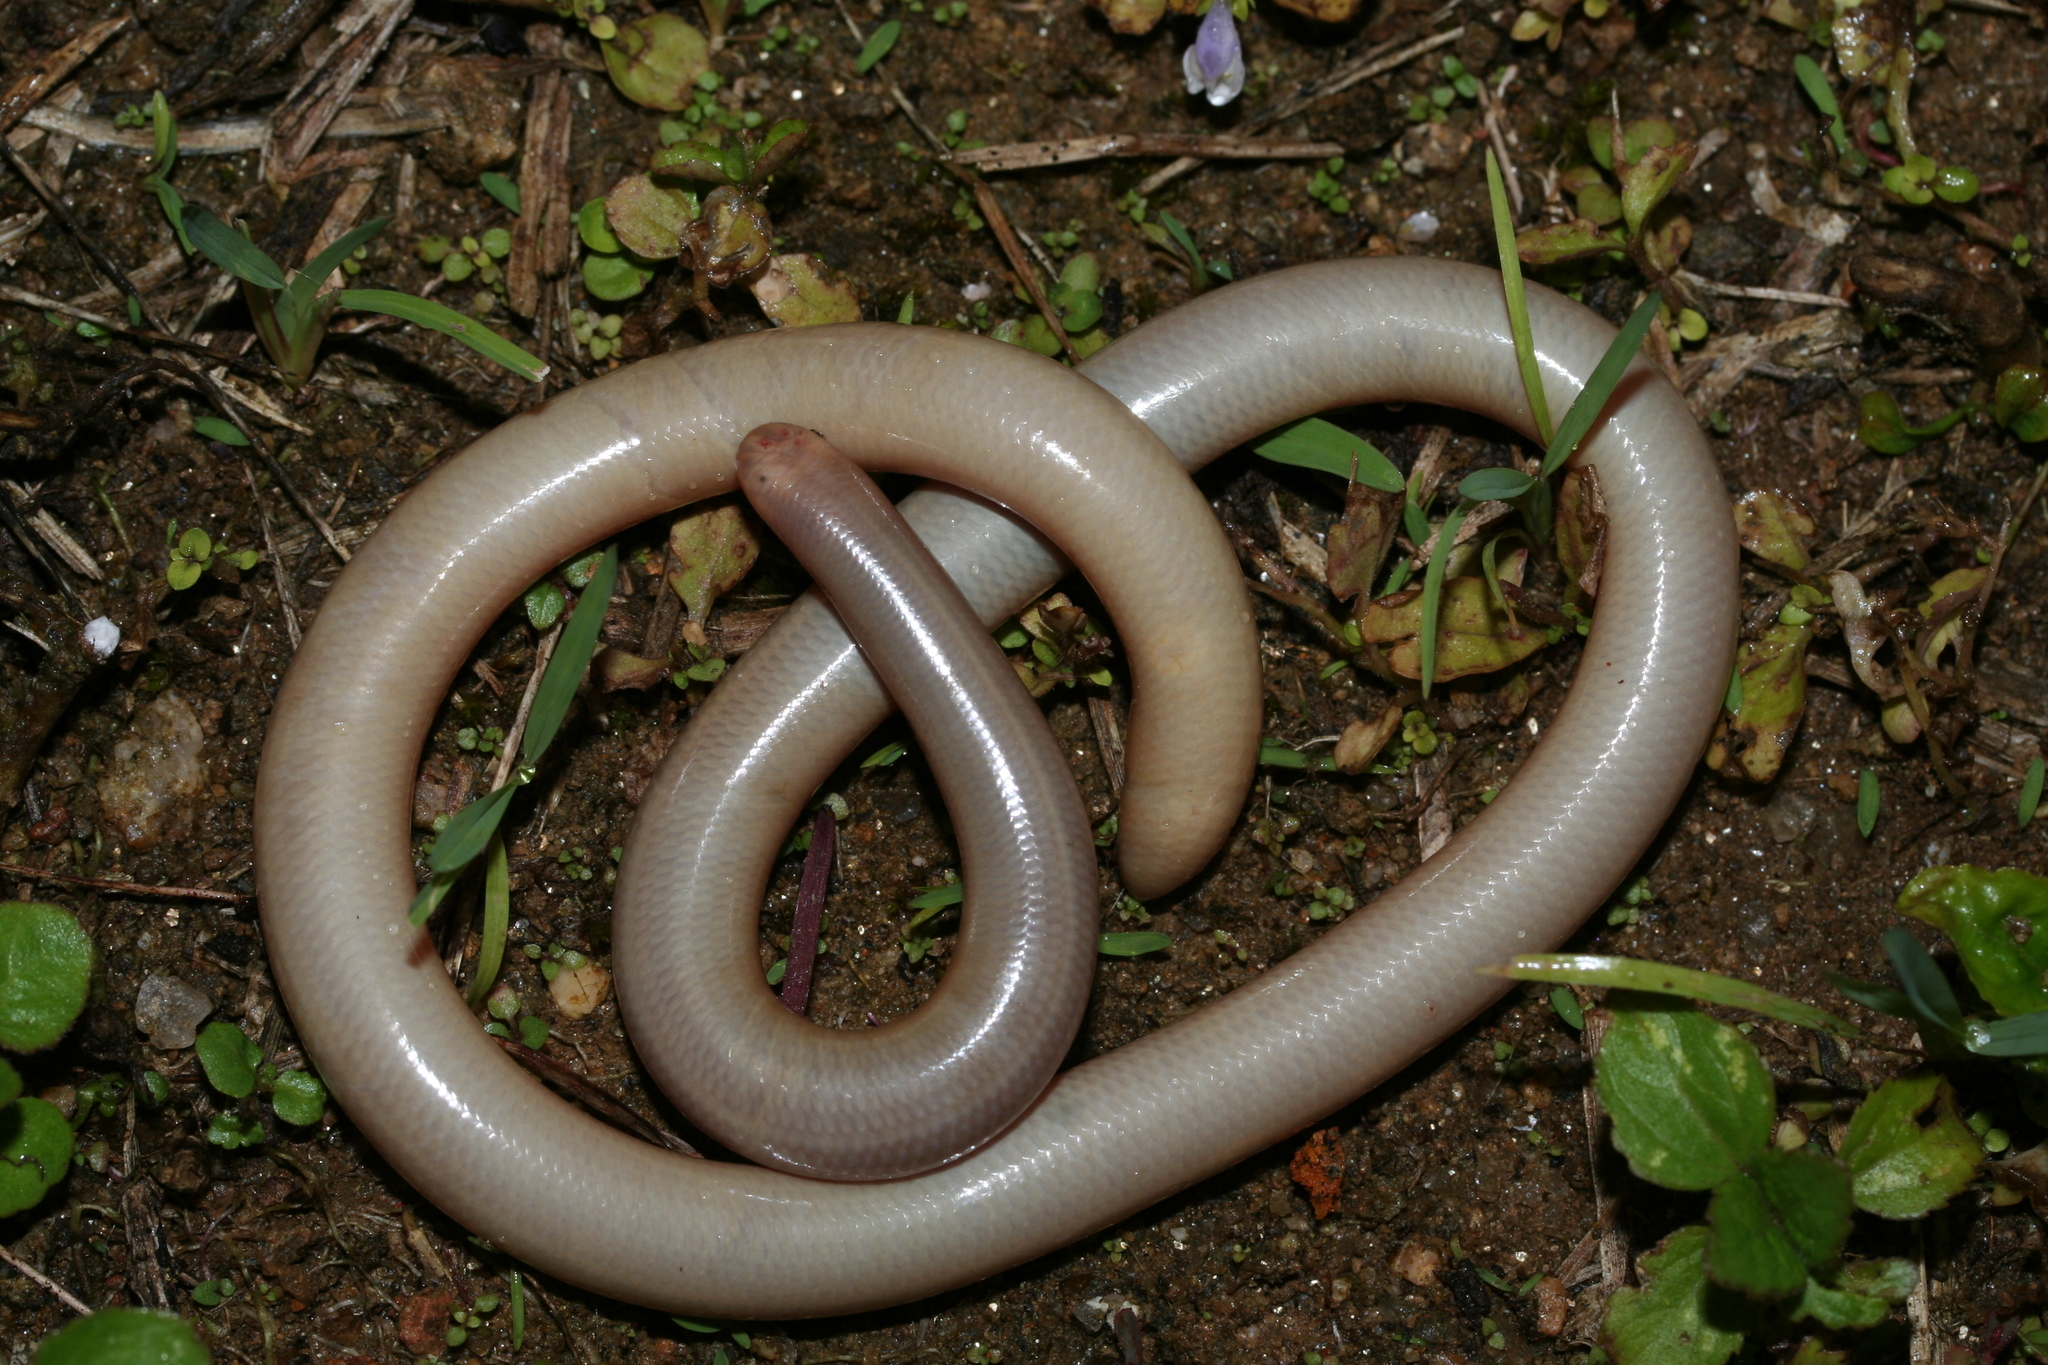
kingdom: Animalia
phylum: Chordata
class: Squamata
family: Typhlopidae
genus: Madatyphlops
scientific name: Madatyphlops rajeryi
